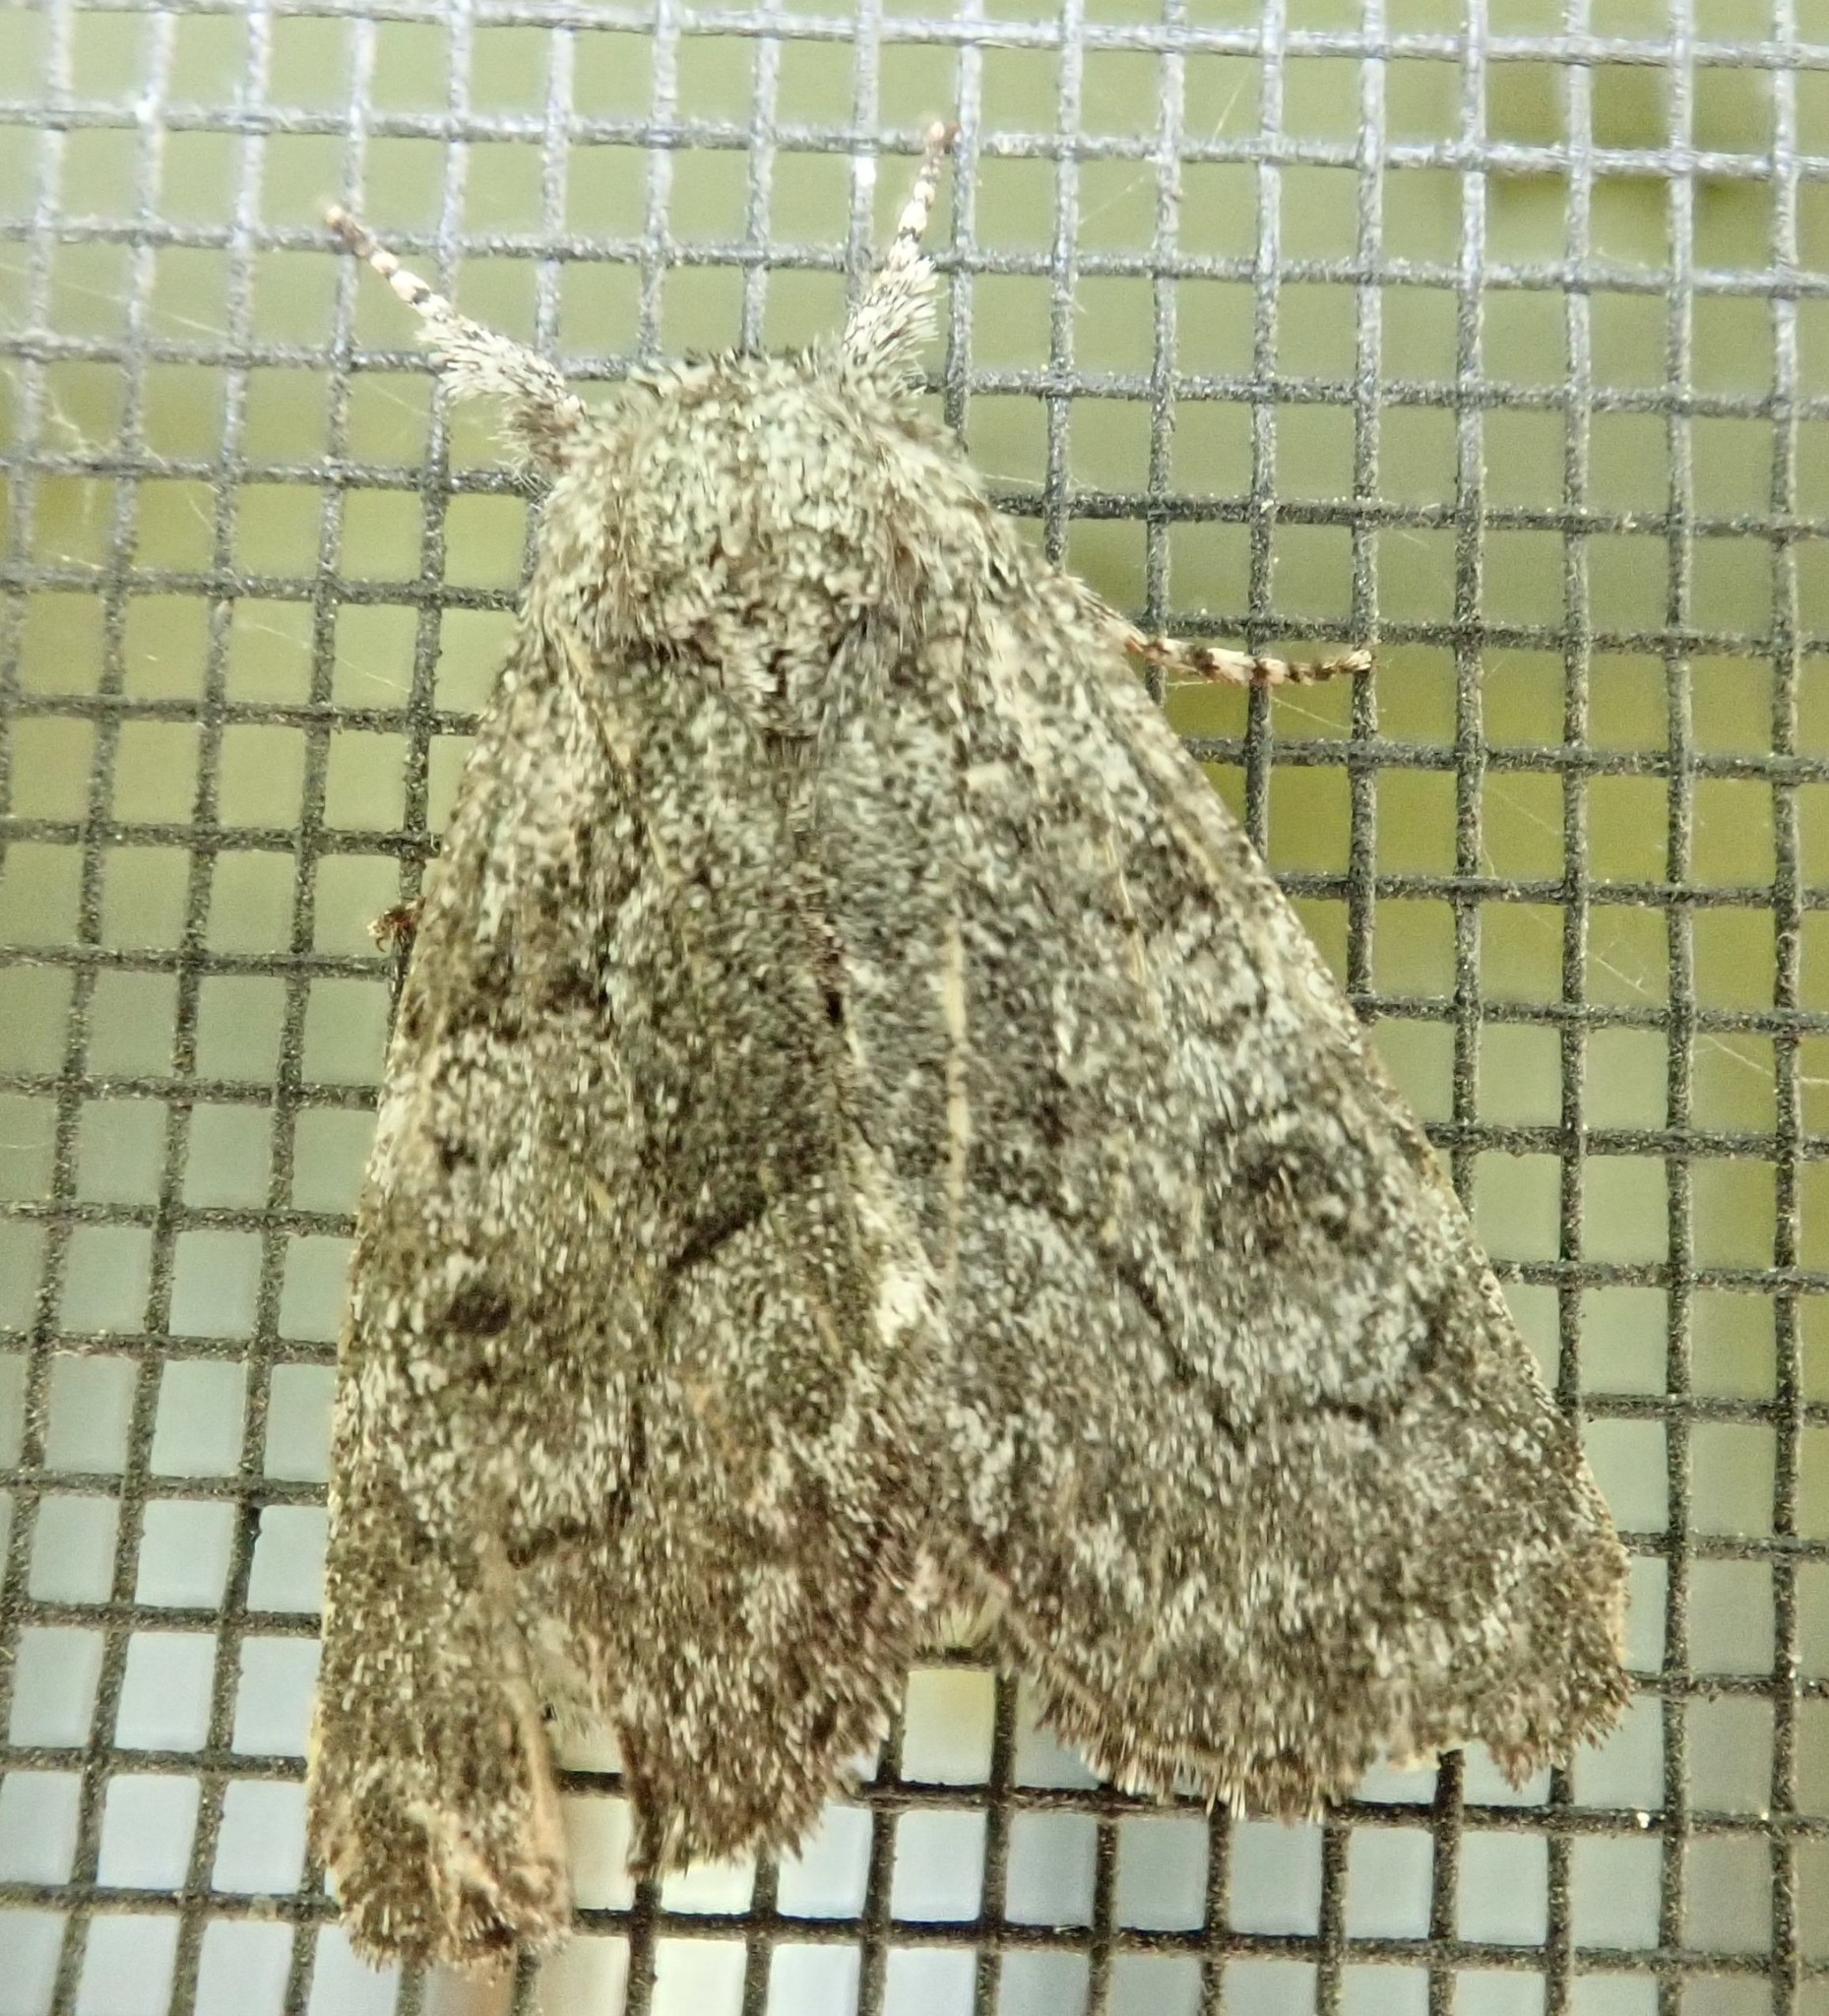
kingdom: Animalia
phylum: Arthropoda
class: Insecta
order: Lepidoptera
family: Noctuidae
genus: Raphia
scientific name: Raphia frater
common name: Brother
